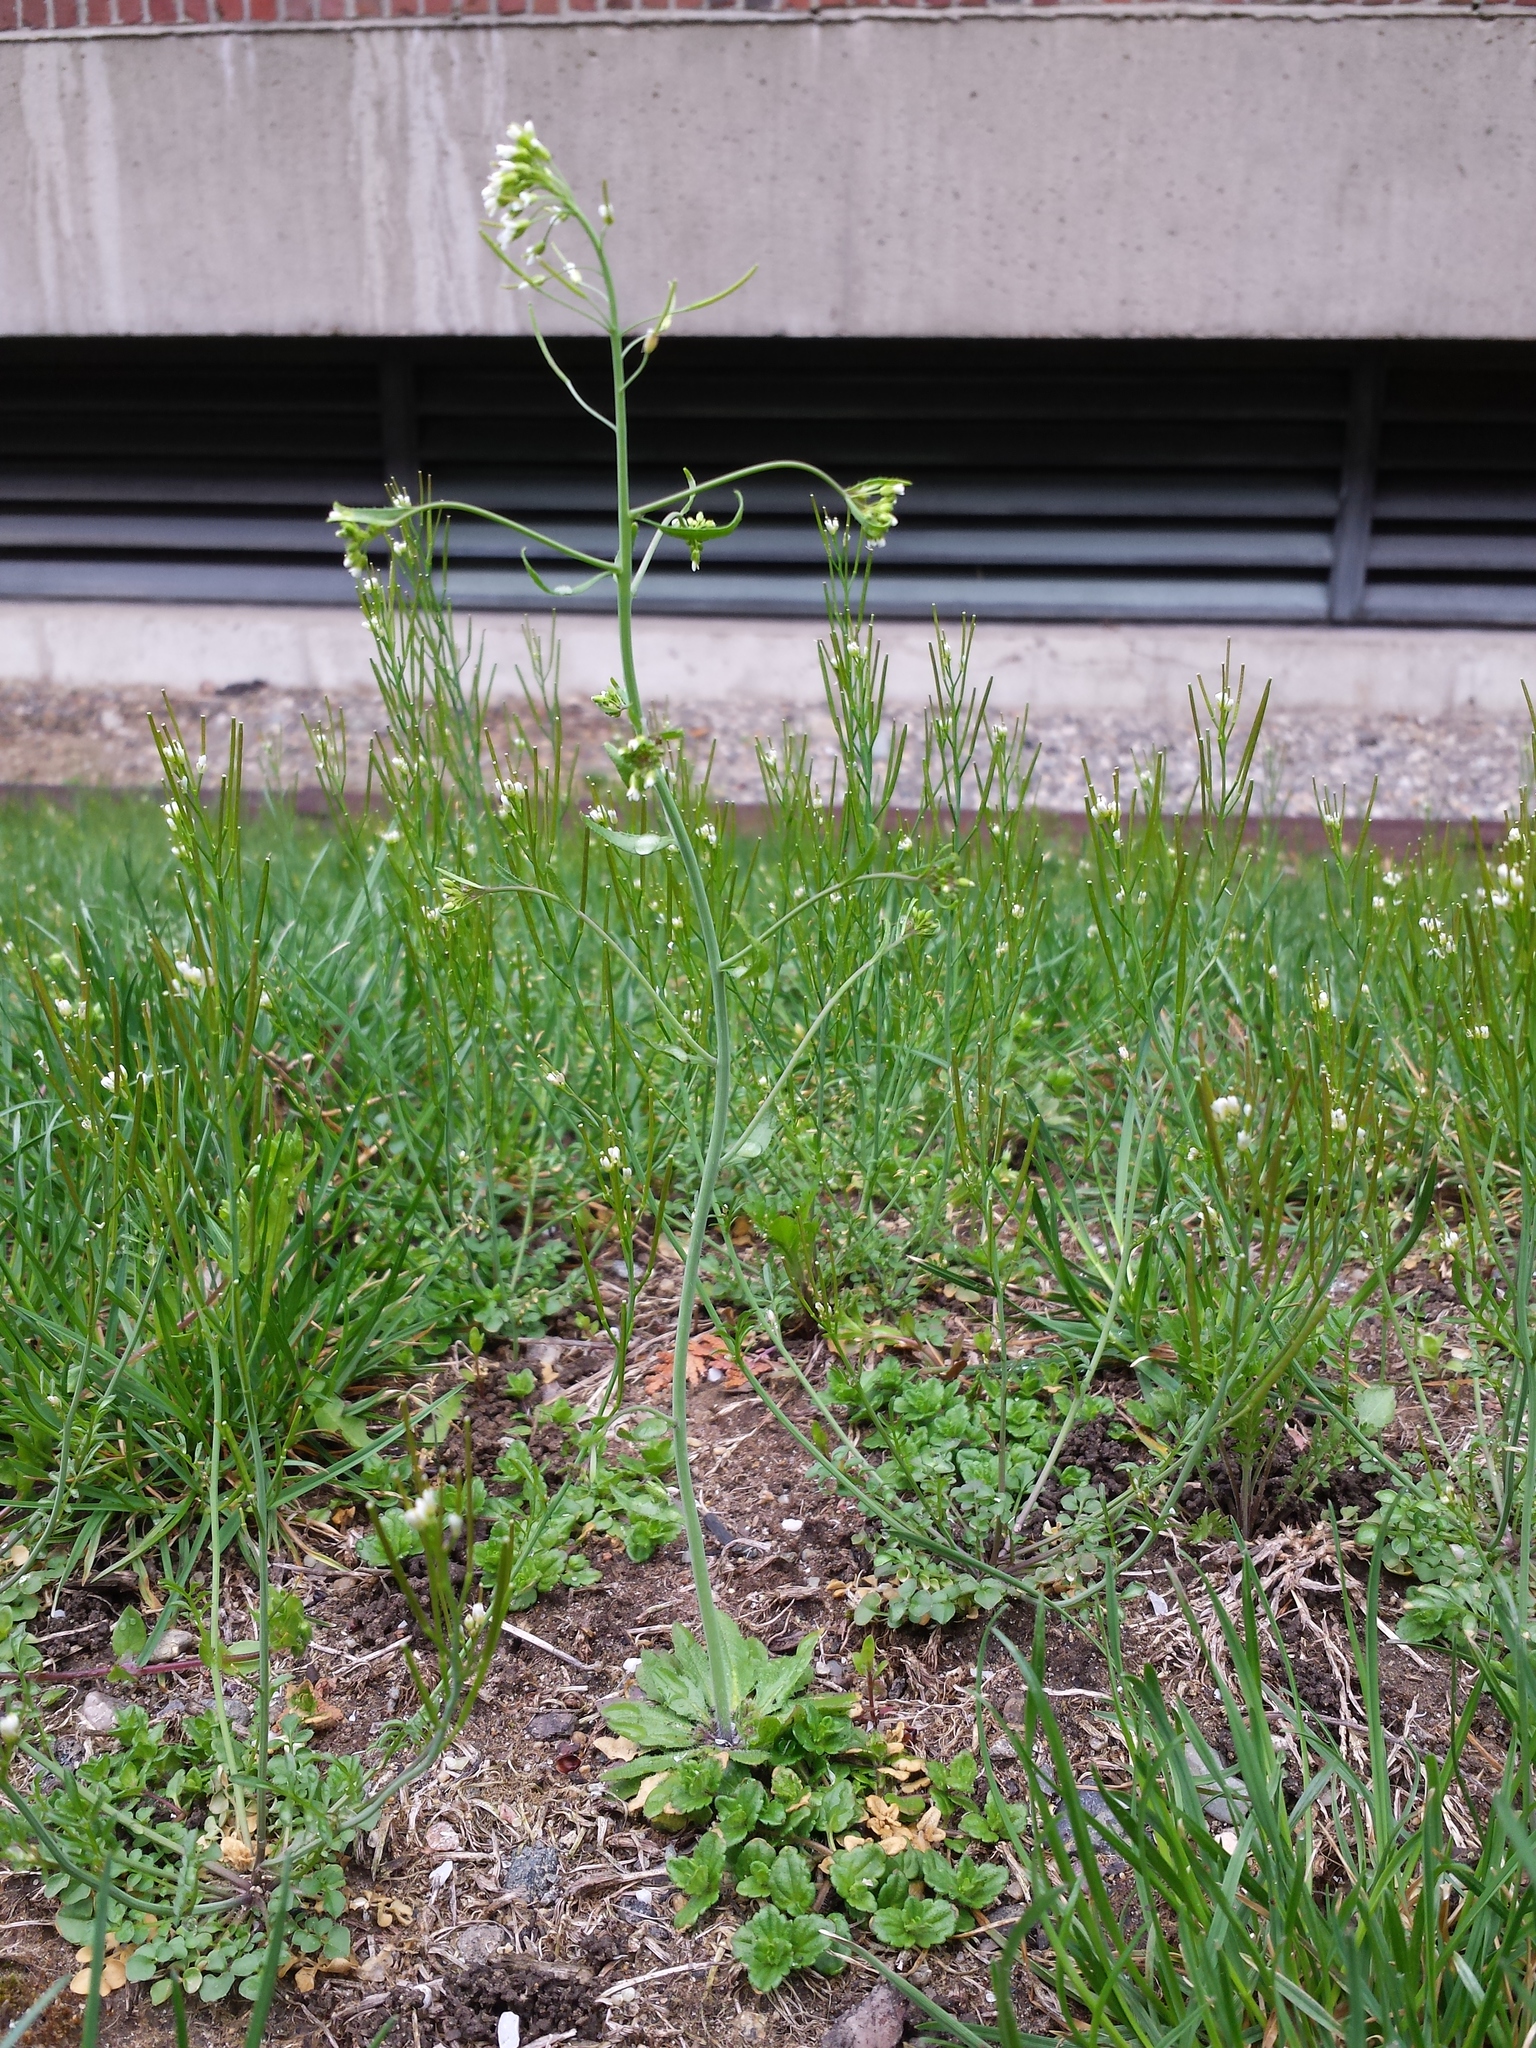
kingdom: Plantae
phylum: Tracheophyta
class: Magnoliopsida
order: Brassicales
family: Brassicaceae
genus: Arabidopsis
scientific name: Arabidopsis thaliana
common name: Thale cress
